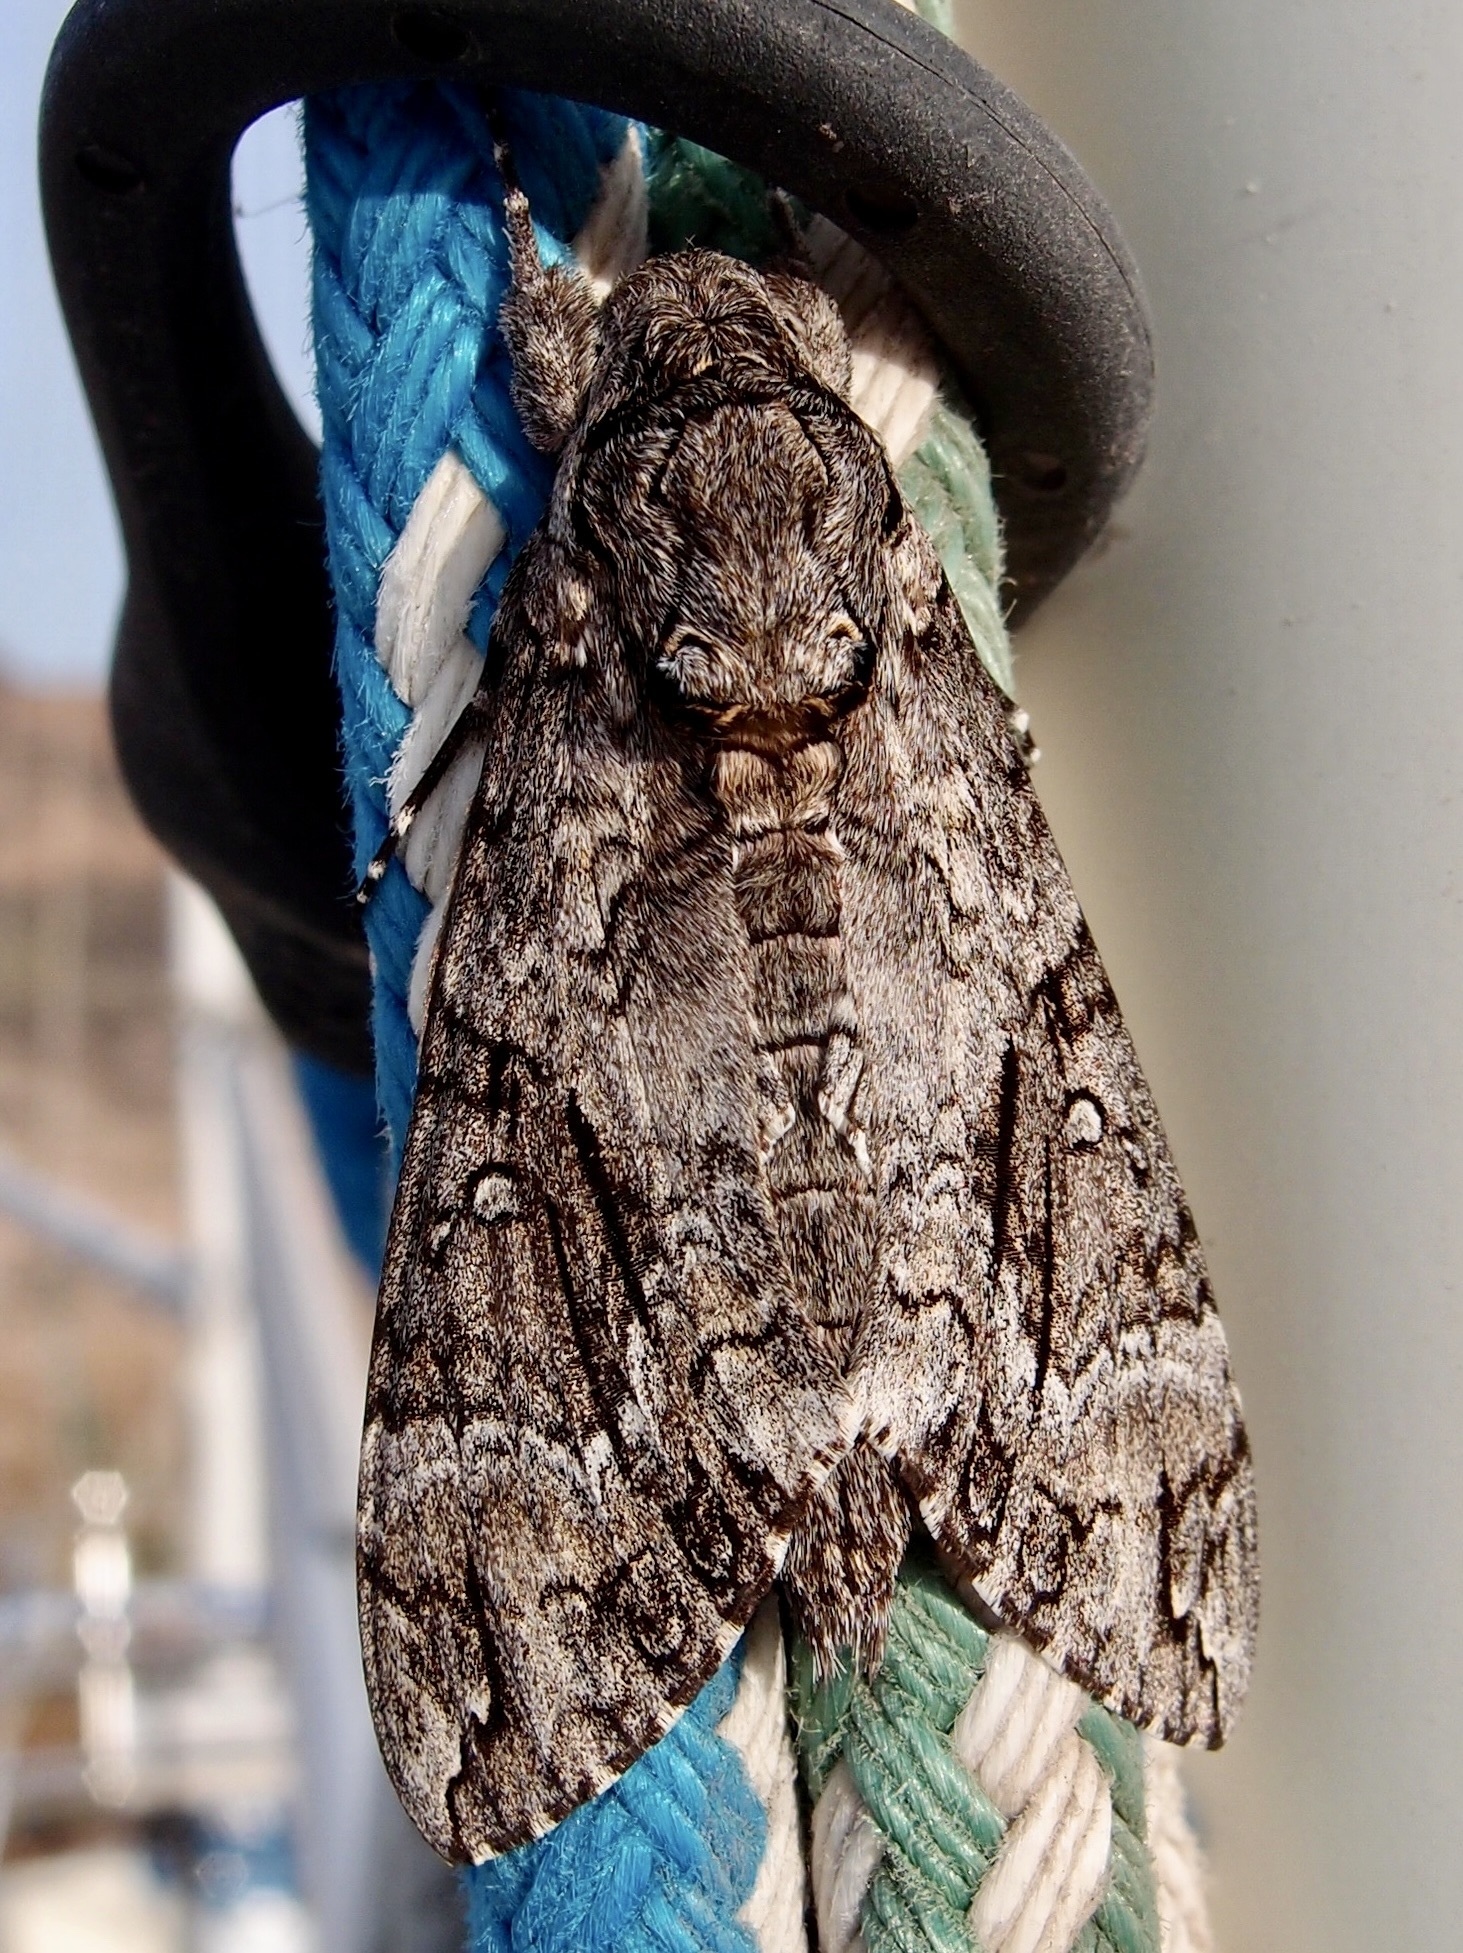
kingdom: Animalia
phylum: Arthropoda
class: Insecta
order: Lepidoptera
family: Sphingidae
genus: Agrius
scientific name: Agrius cingulata
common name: Pink-spotted hawkmoth
